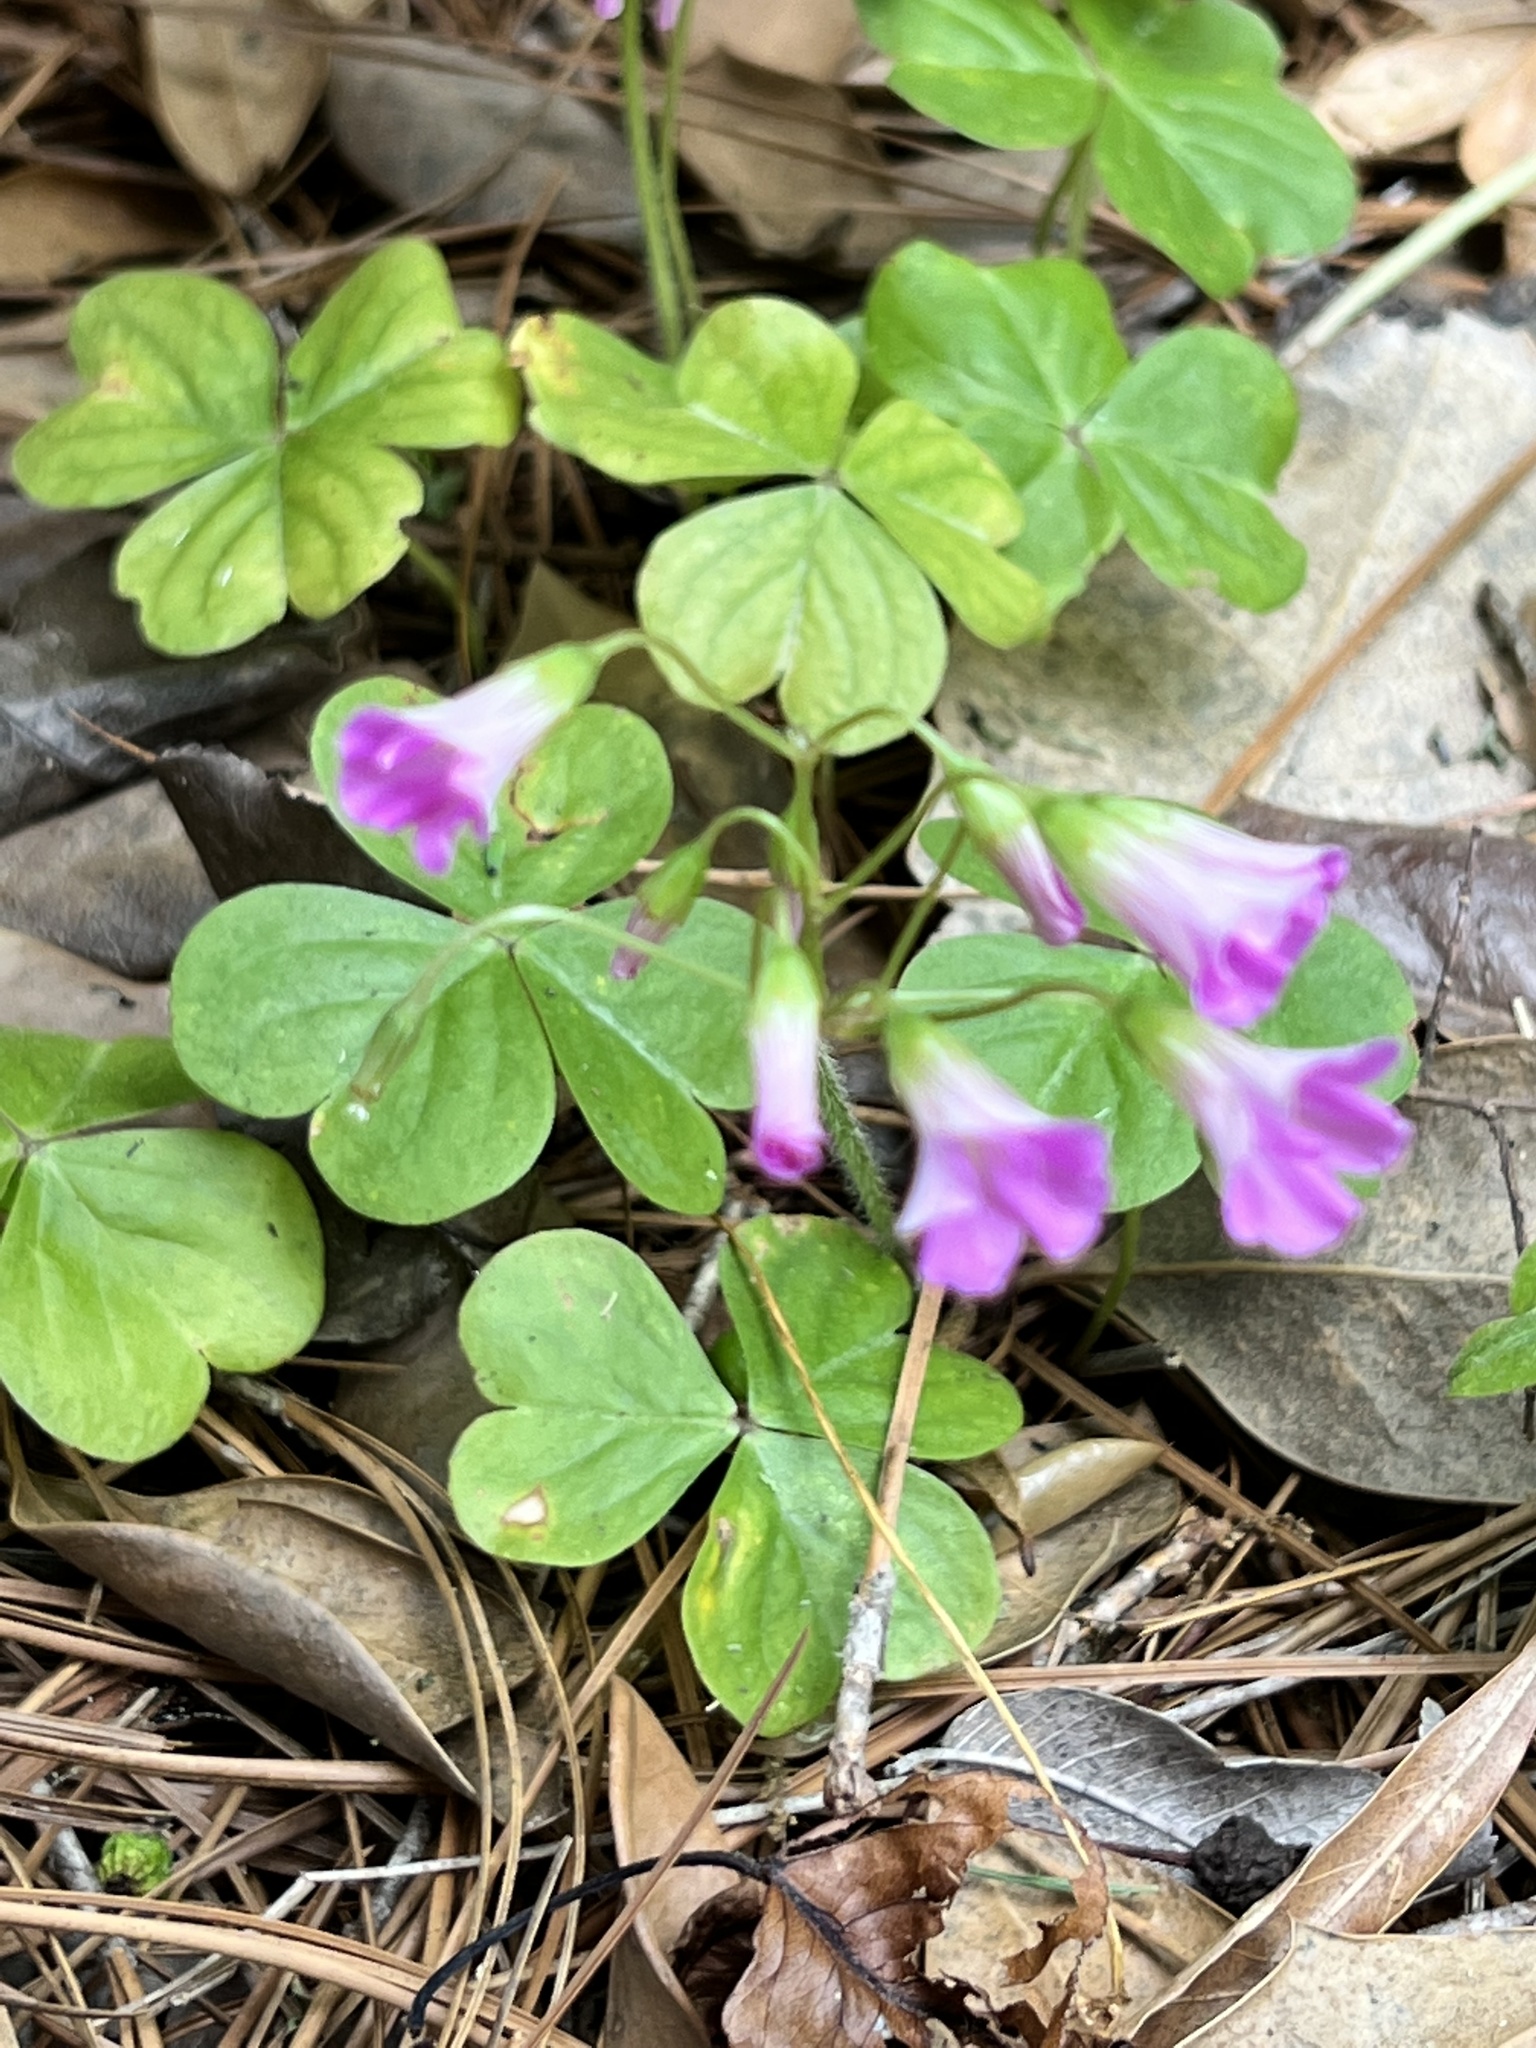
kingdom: Plantae
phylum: Tracheophyta
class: Magnoliopsida
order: Oxalidales
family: Oxalidaceae
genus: Oxalis
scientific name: Oxalis debilis
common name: Large-flowered pink-sorrel
